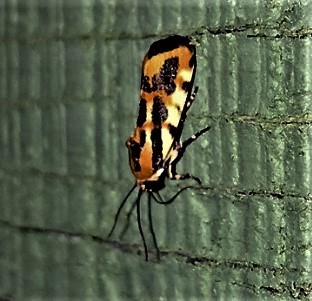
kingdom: Animalia
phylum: Arthropoda
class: Insecta
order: Lepidoptera
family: Noctuidae
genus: Acontia
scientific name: Acontia leo
